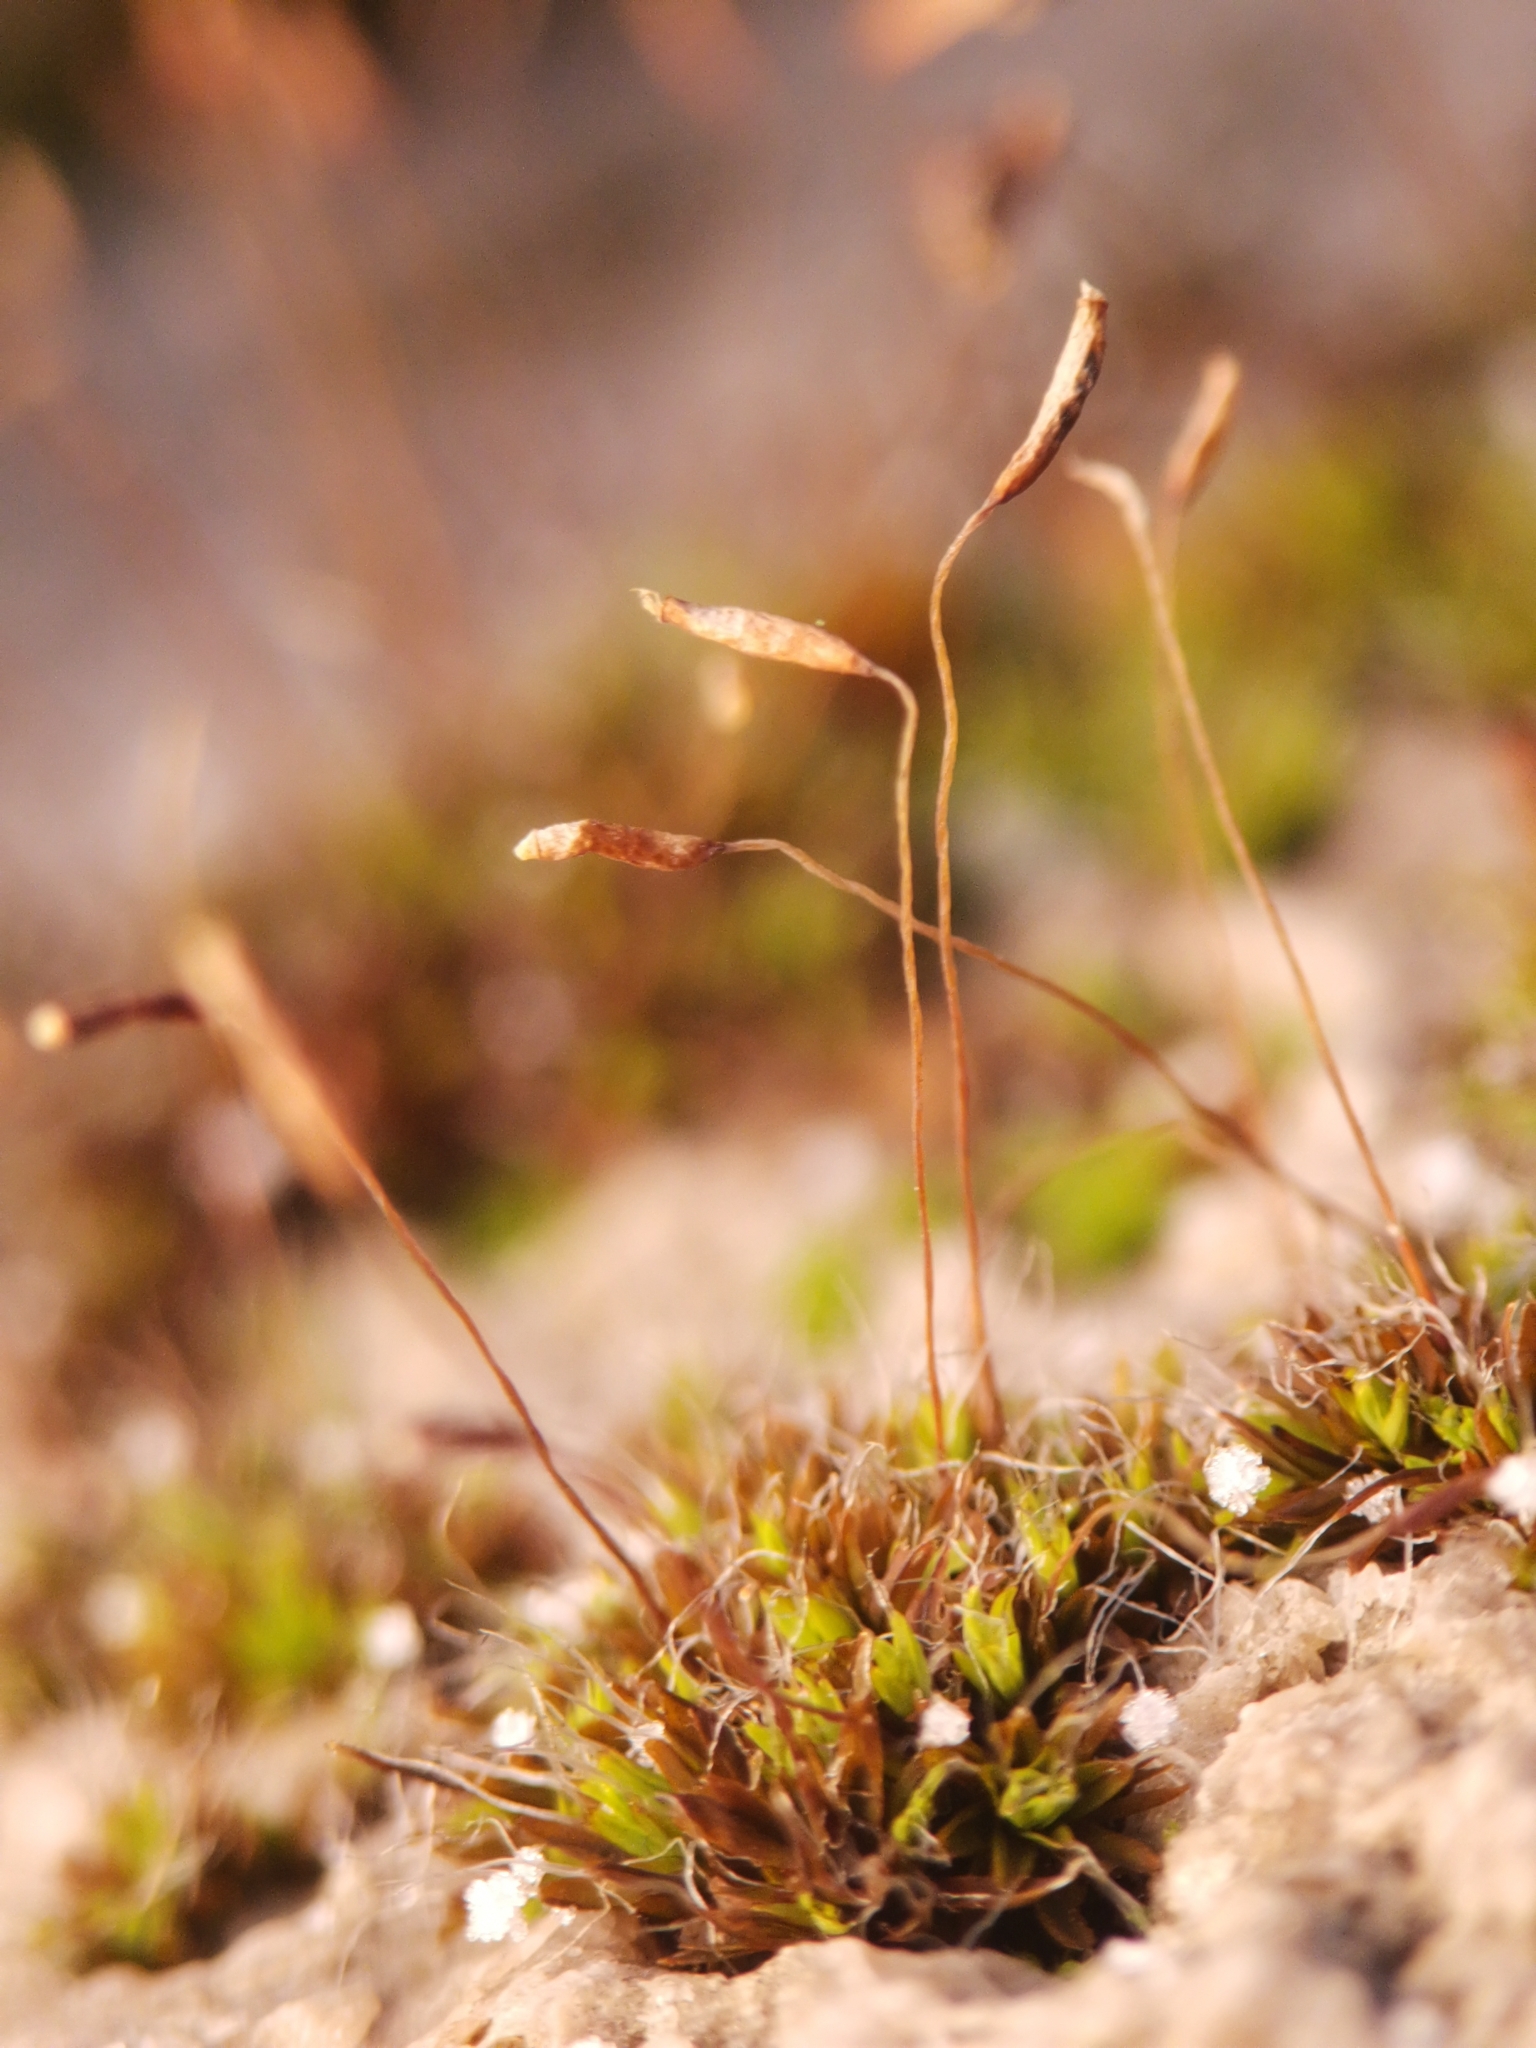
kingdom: Plantae
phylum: Bryophyta
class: Bryopsida
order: Pottiales
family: Pottiaceae
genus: Tortula
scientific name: Tortula muralis
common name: Wall screw-moss
